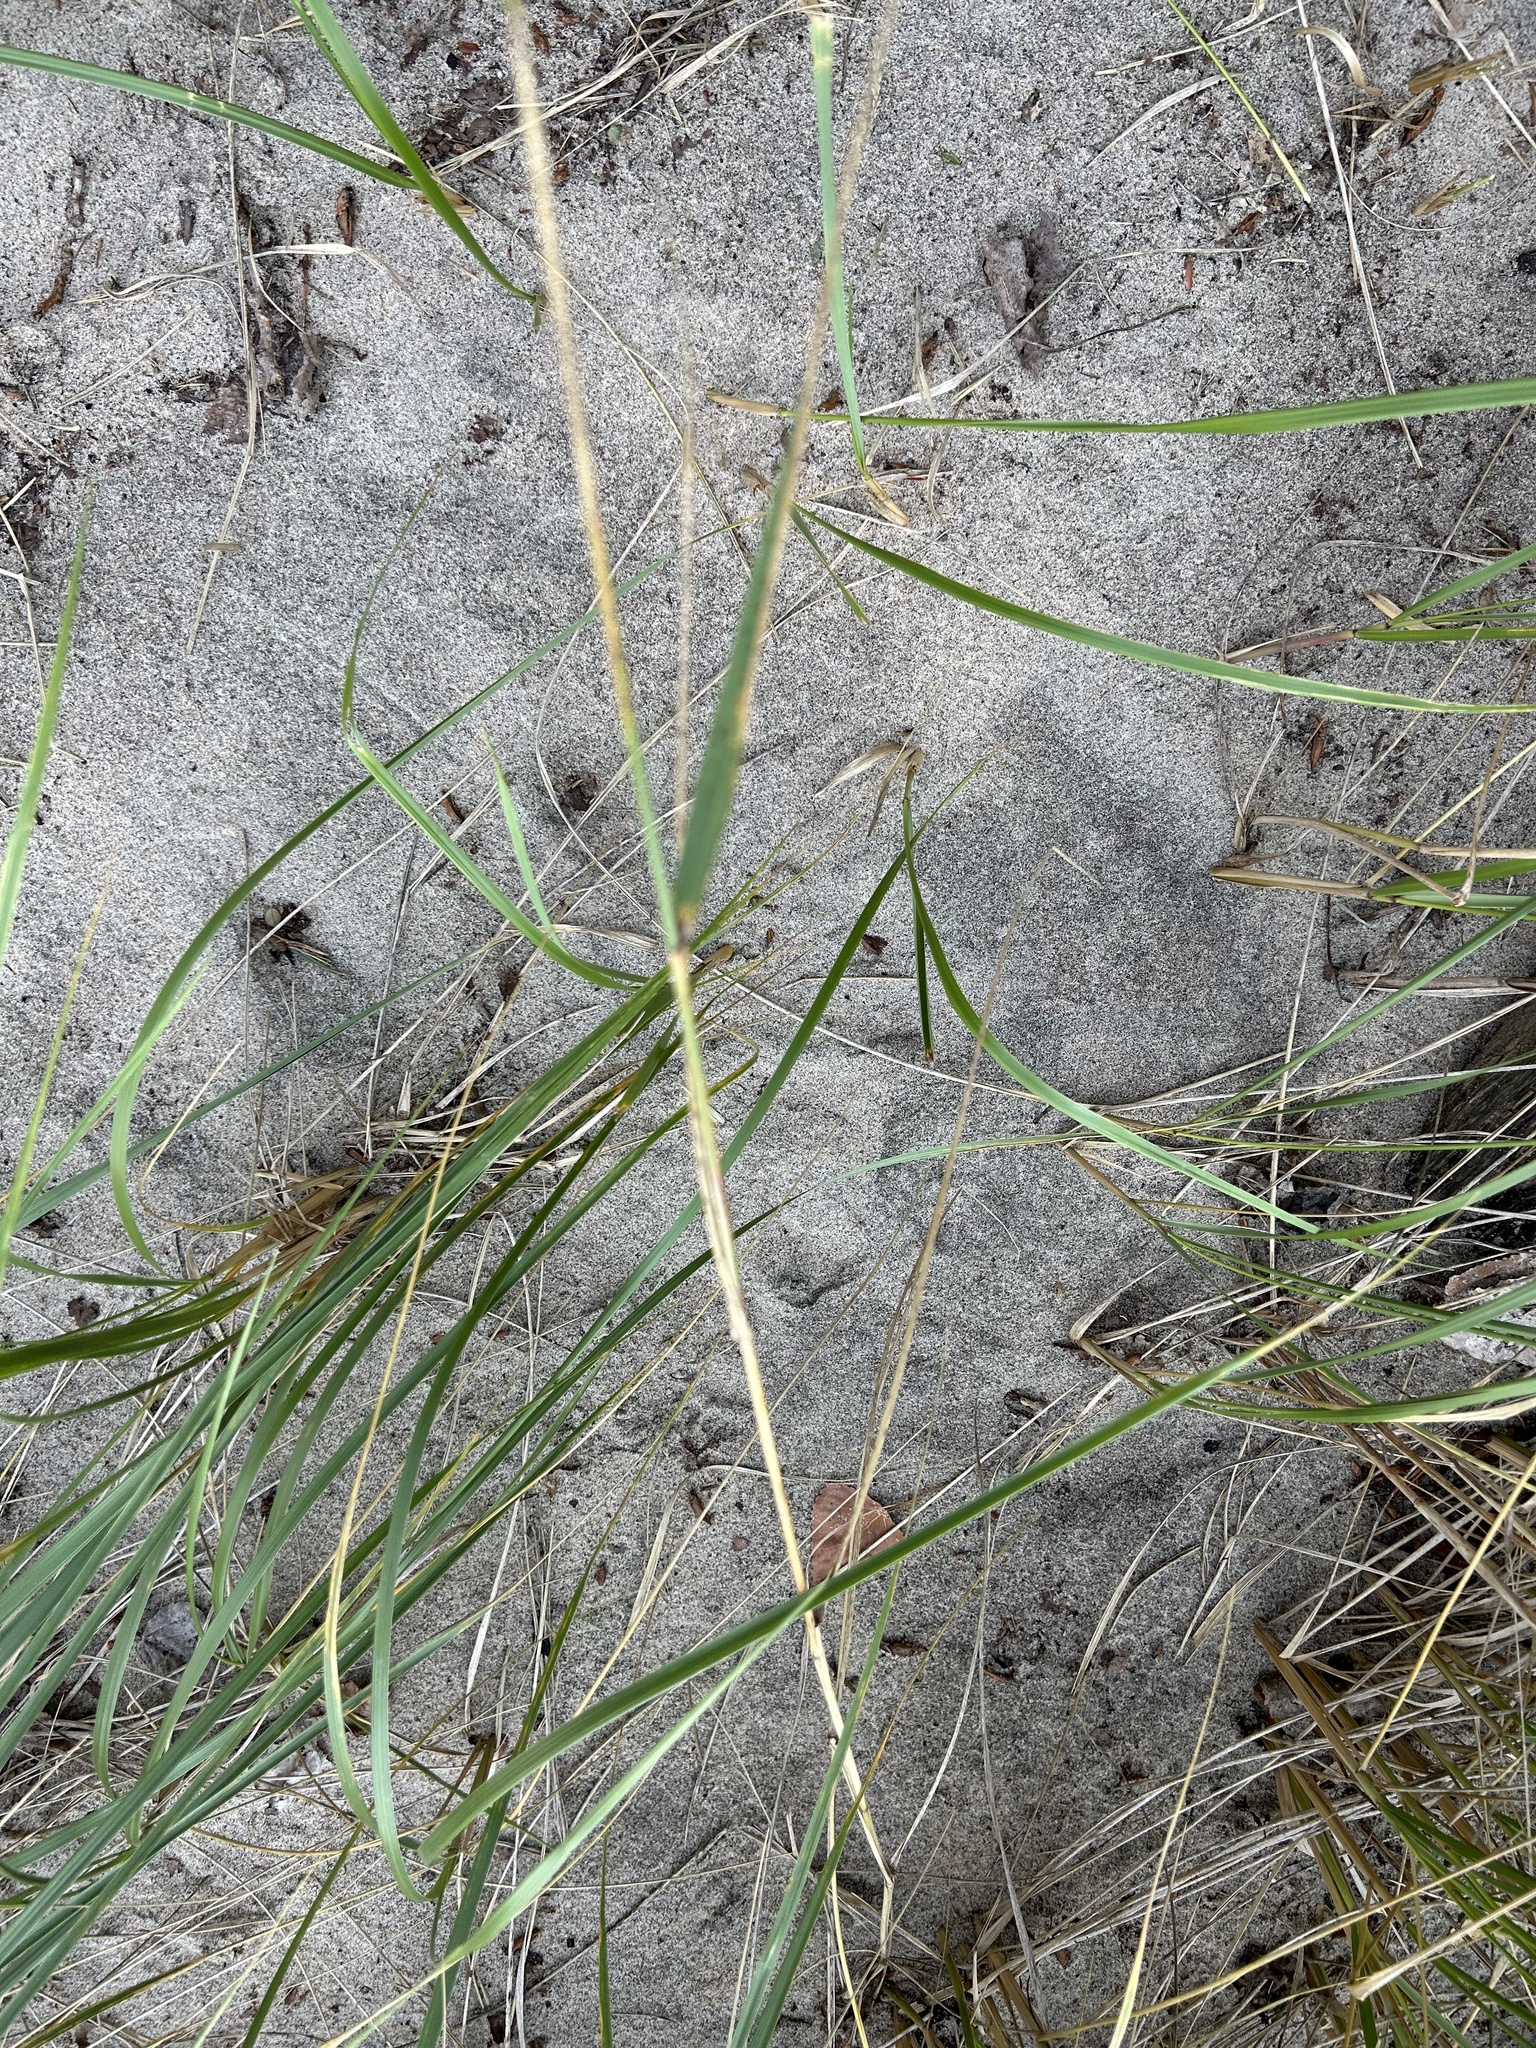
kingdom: Plantae
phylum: Tracheophyta
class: Liliopsida
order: Poales
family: Poaceae
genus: Elymus
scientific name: Elymus canadensis
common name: Canada wild rye
